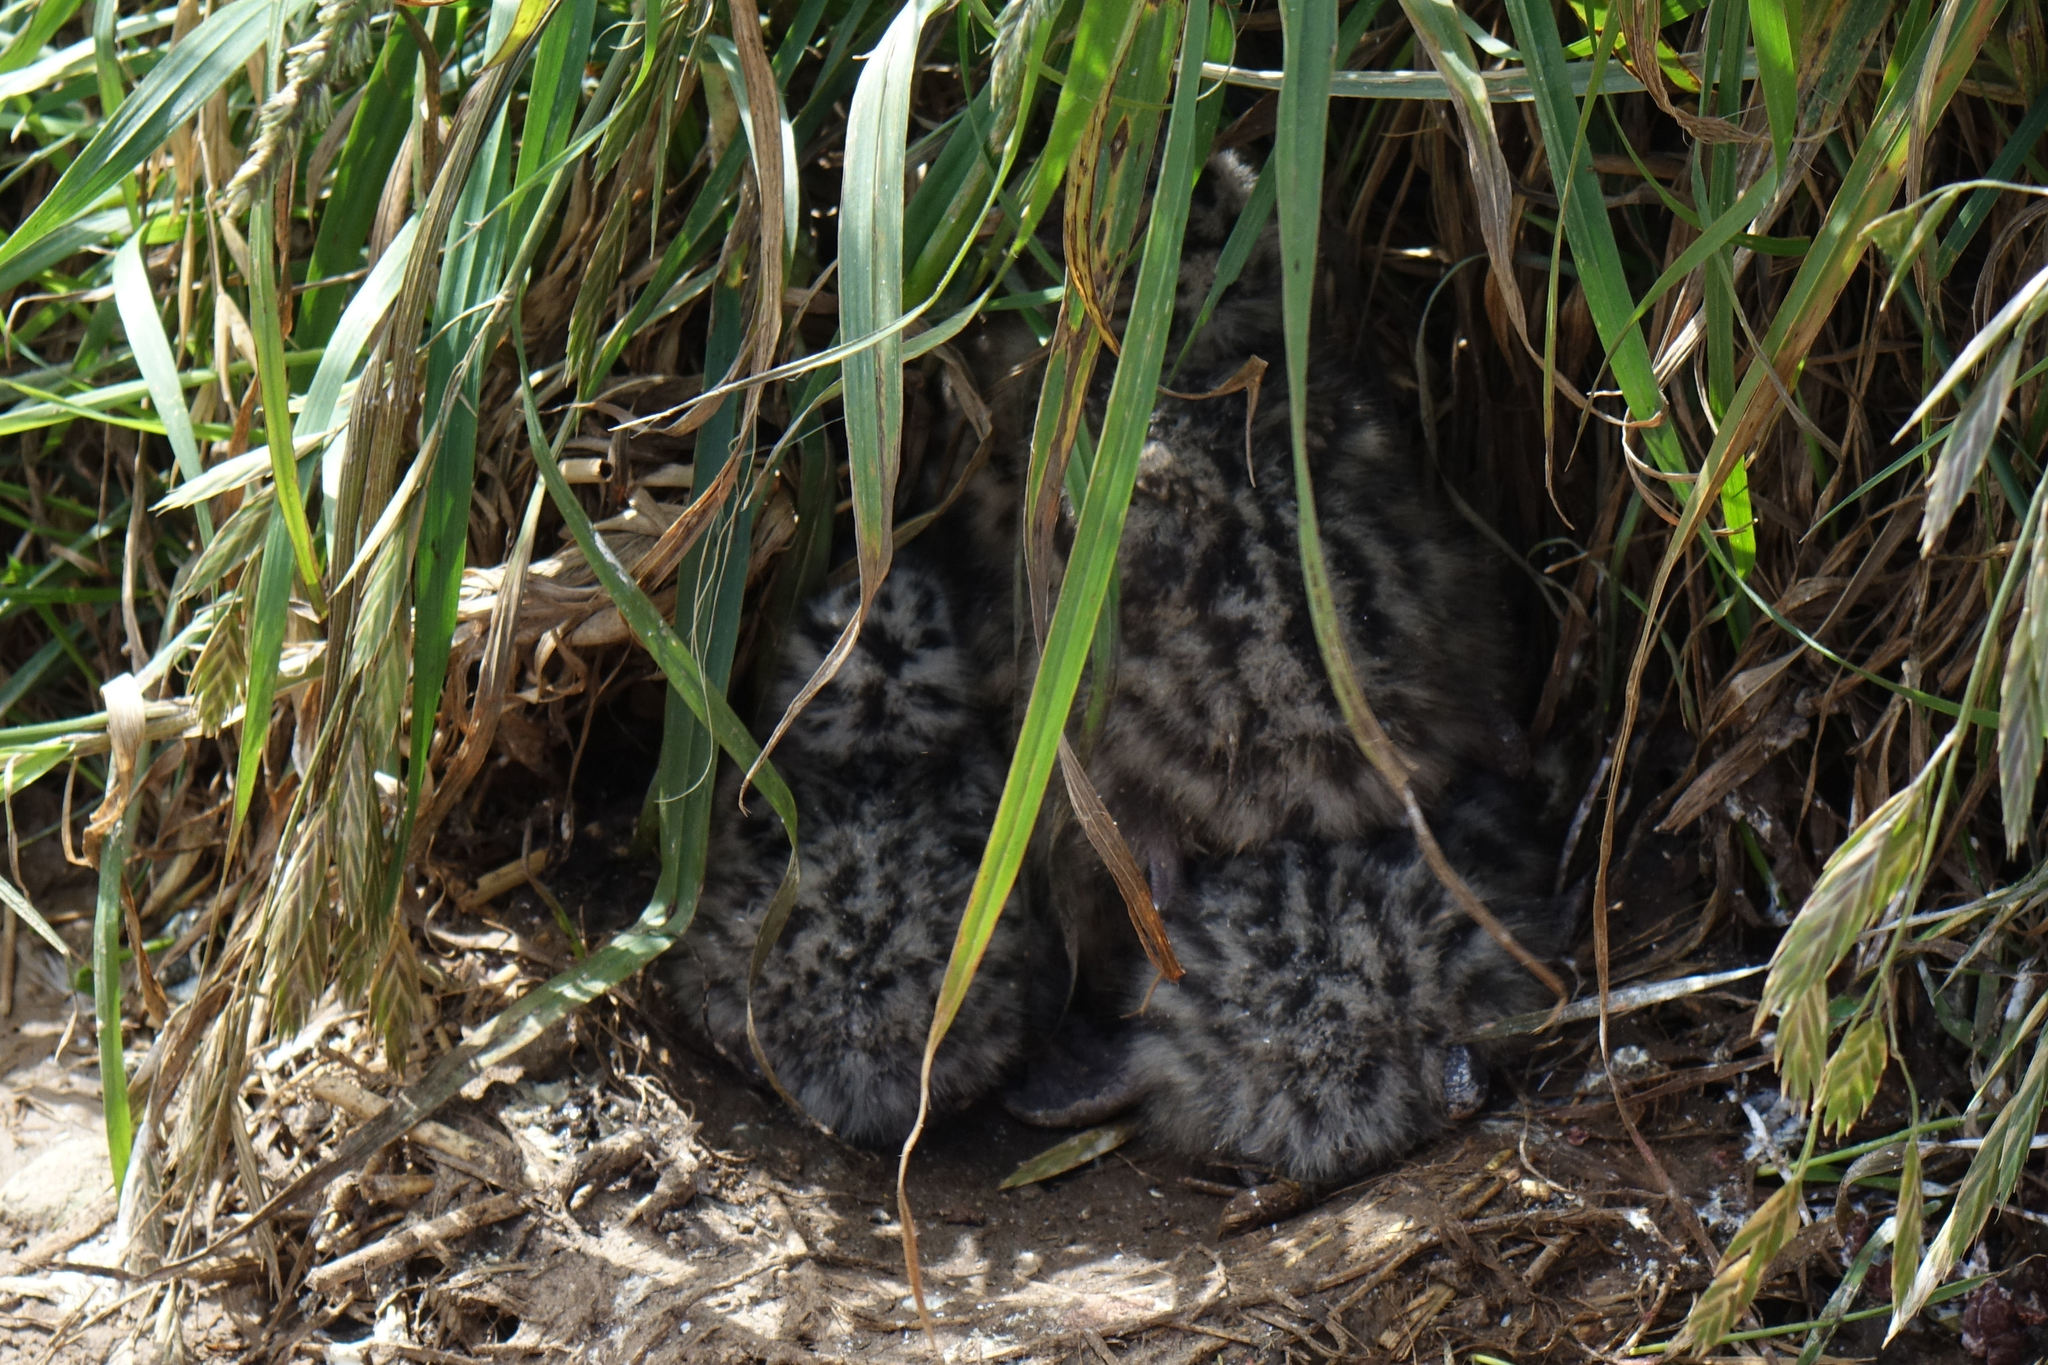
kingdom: Animalia
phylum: Chordata
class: Aves
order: Charadriiformes
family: Laridae
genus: Chroicocephalus
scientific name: Chroicocephalus novaehollandiae
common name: Silver gull
